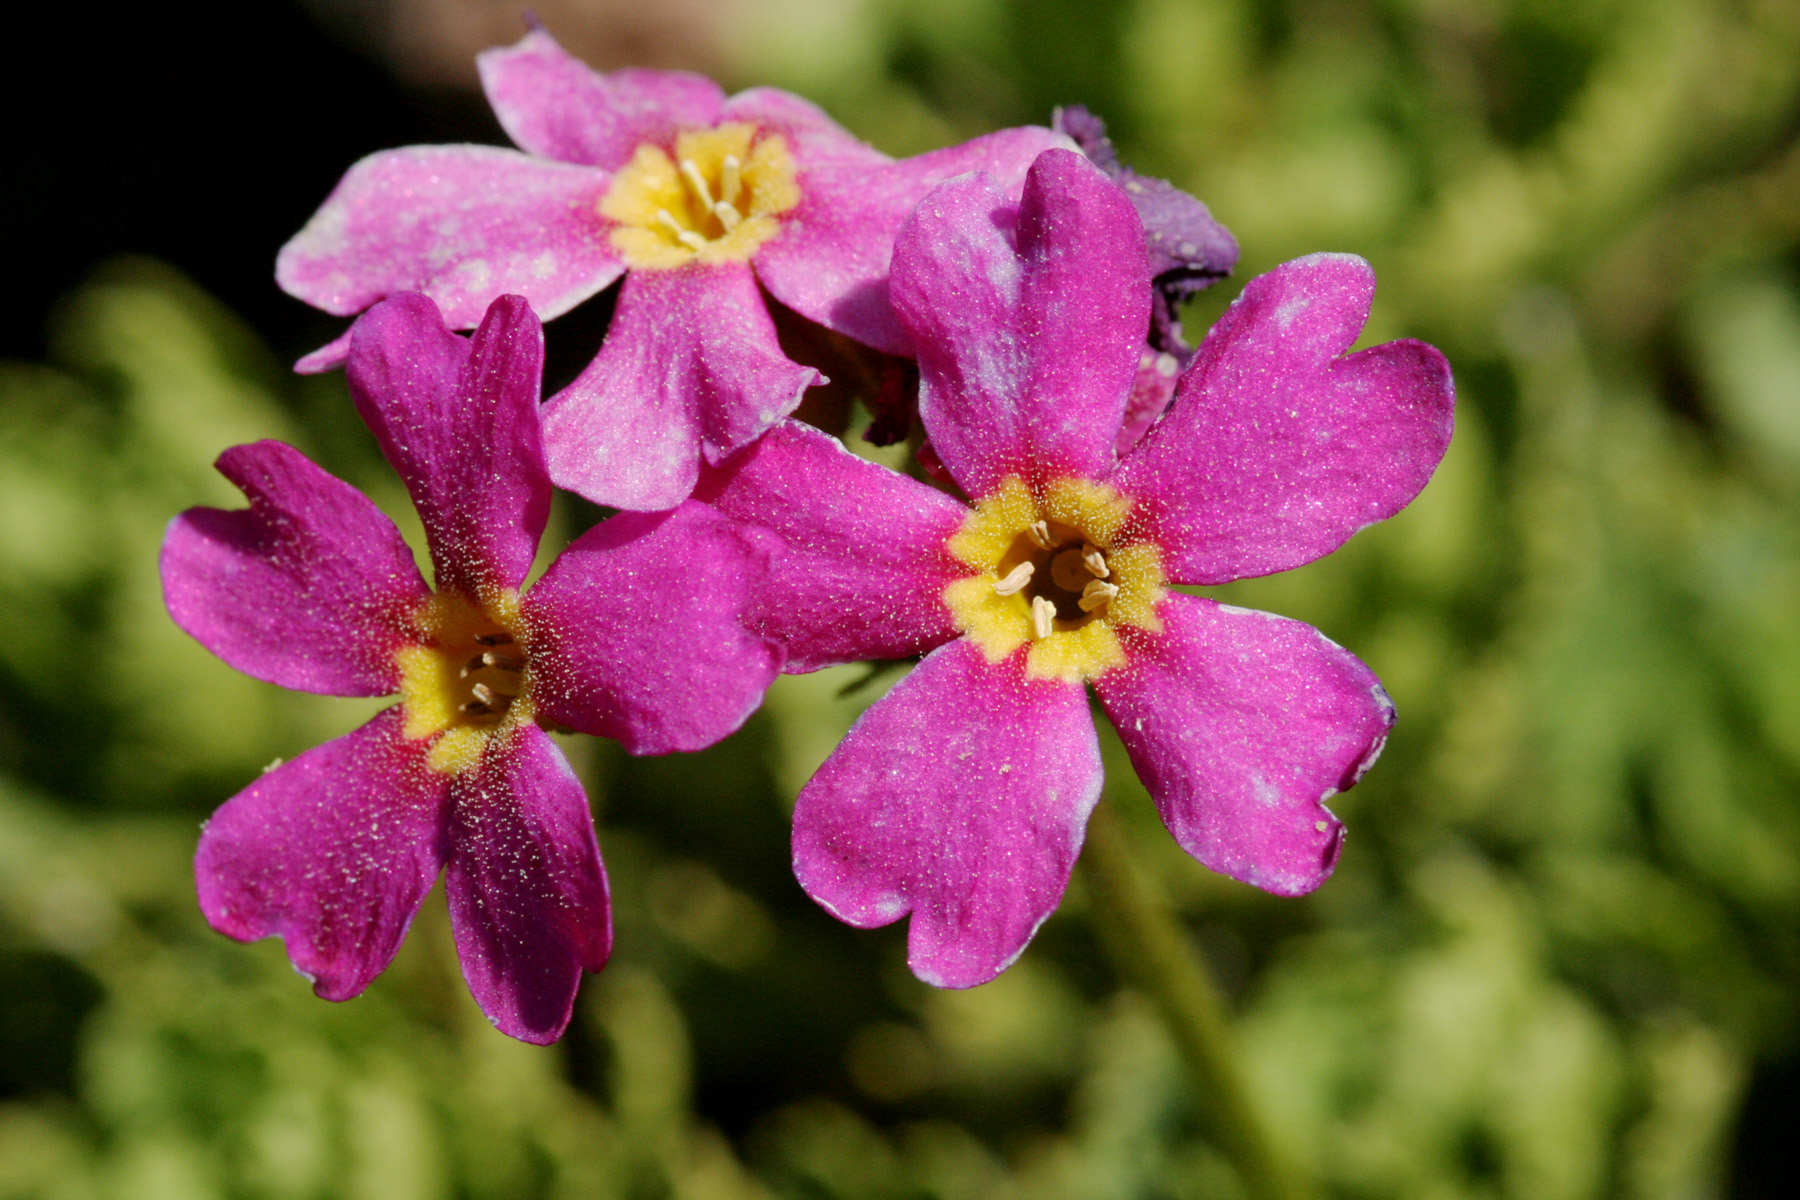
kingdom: Plantae
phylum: Tracheophyta
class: Magnoliopsida
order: Ericales
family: Primulaceae
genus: Primula
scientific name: Primula suffrutescens
